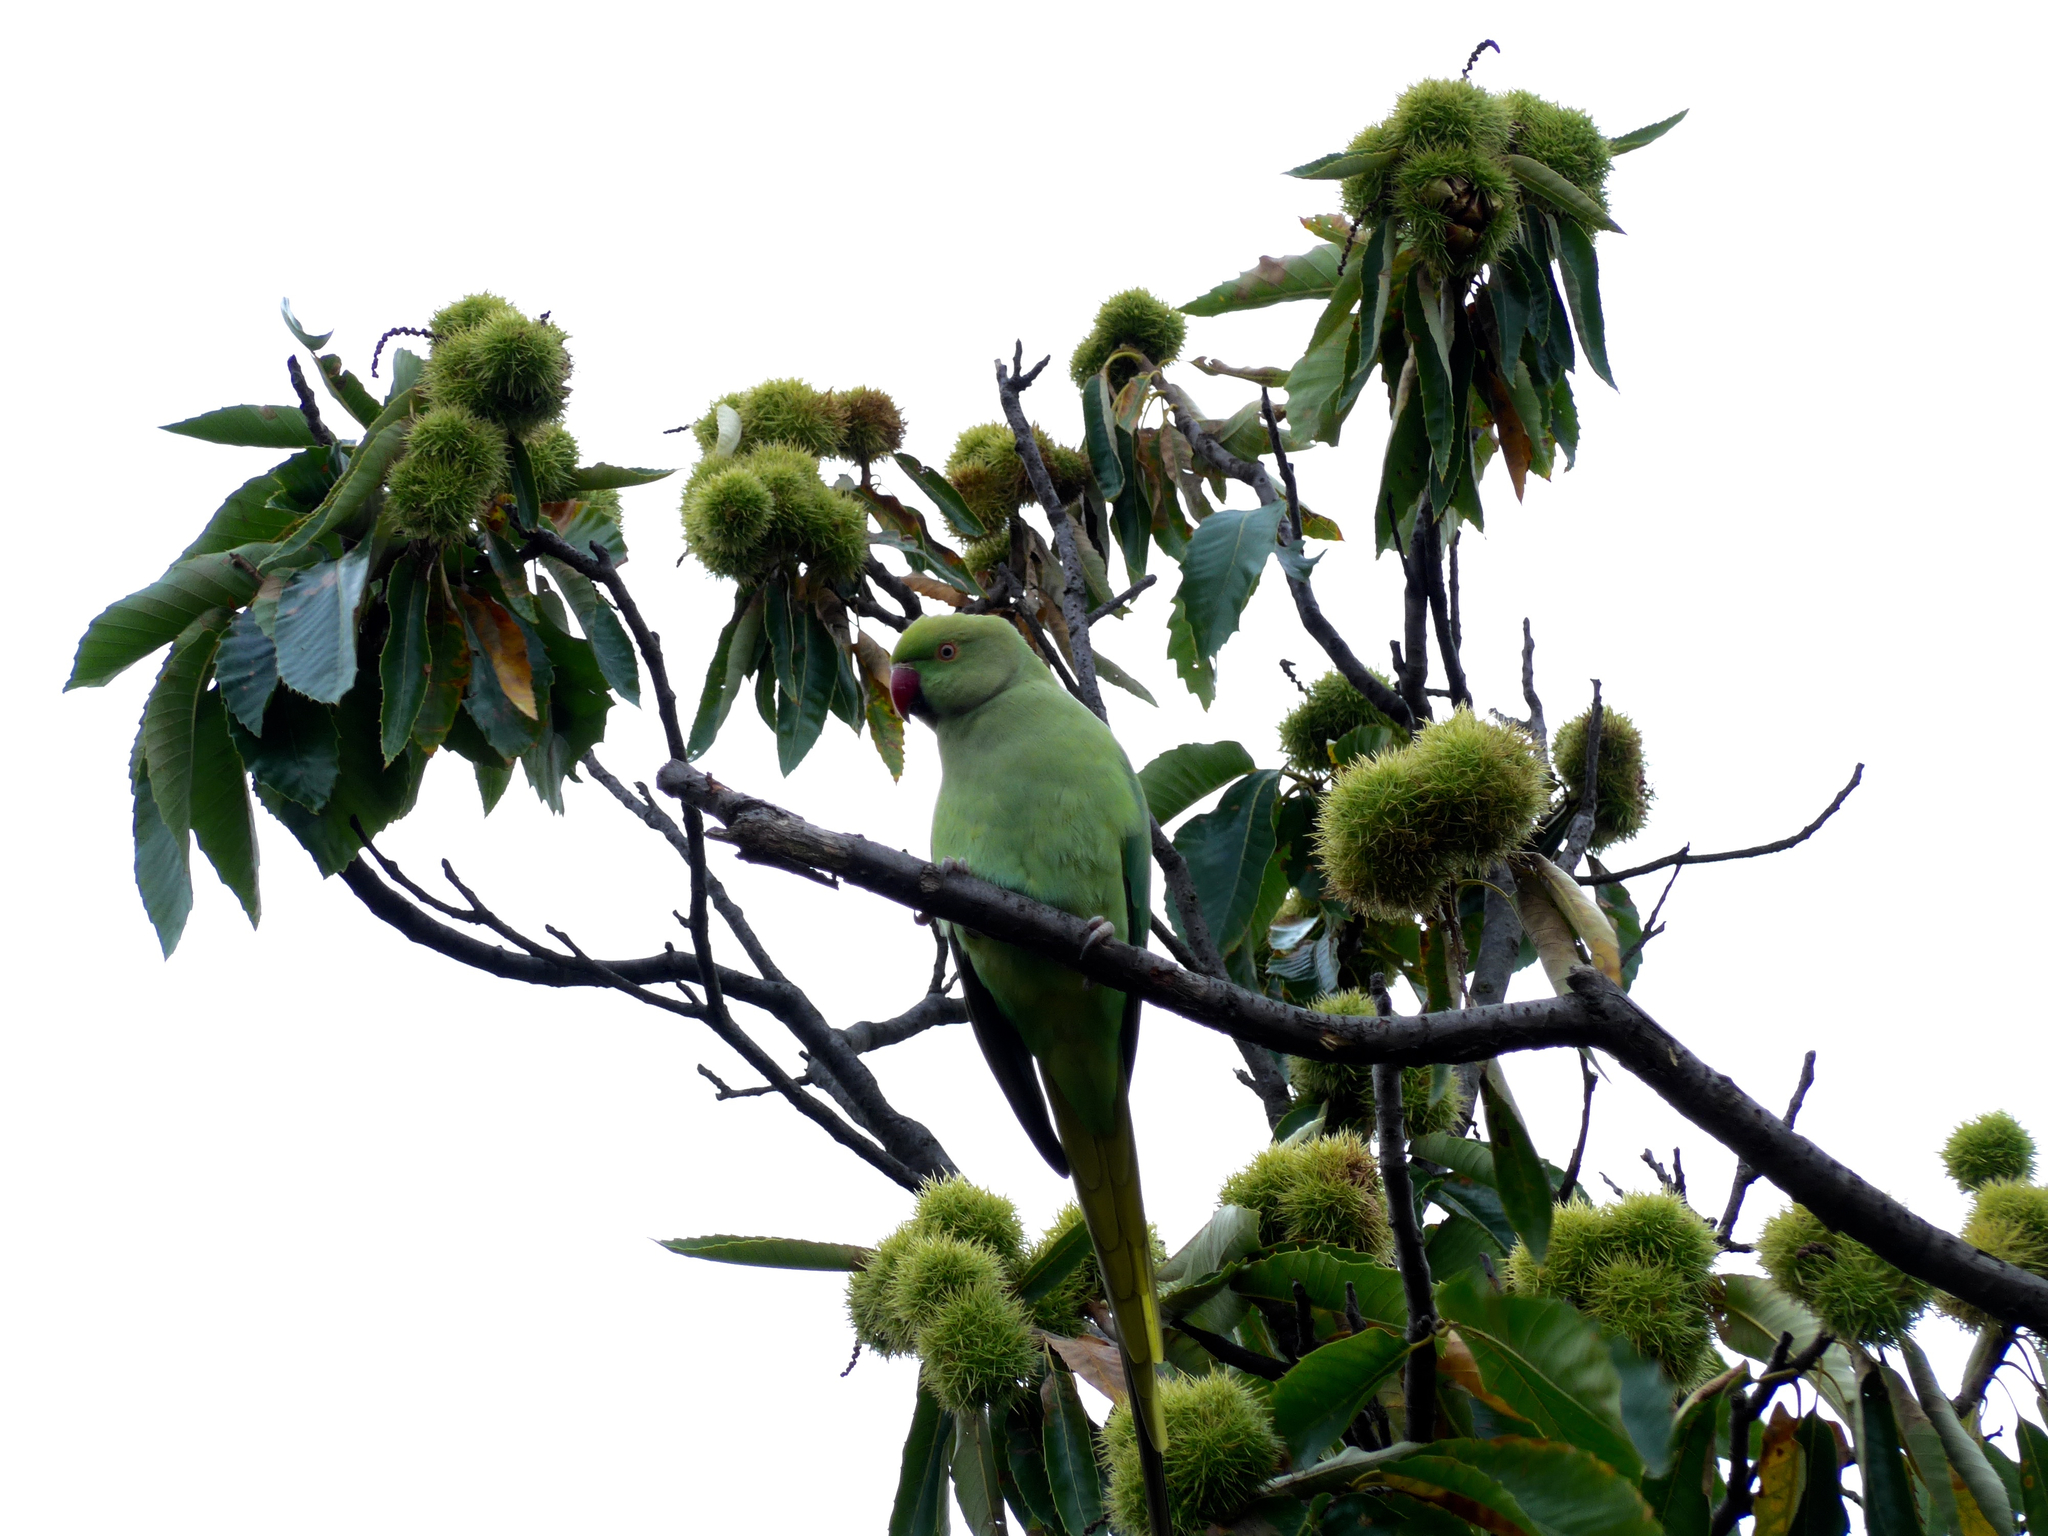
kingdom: Animalia
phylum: Chordata
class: Aves
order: Psittaciformes
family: Psittacidae
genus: Psittacula
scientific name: Psittacula krameri
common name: Rose-ringed parakeet
